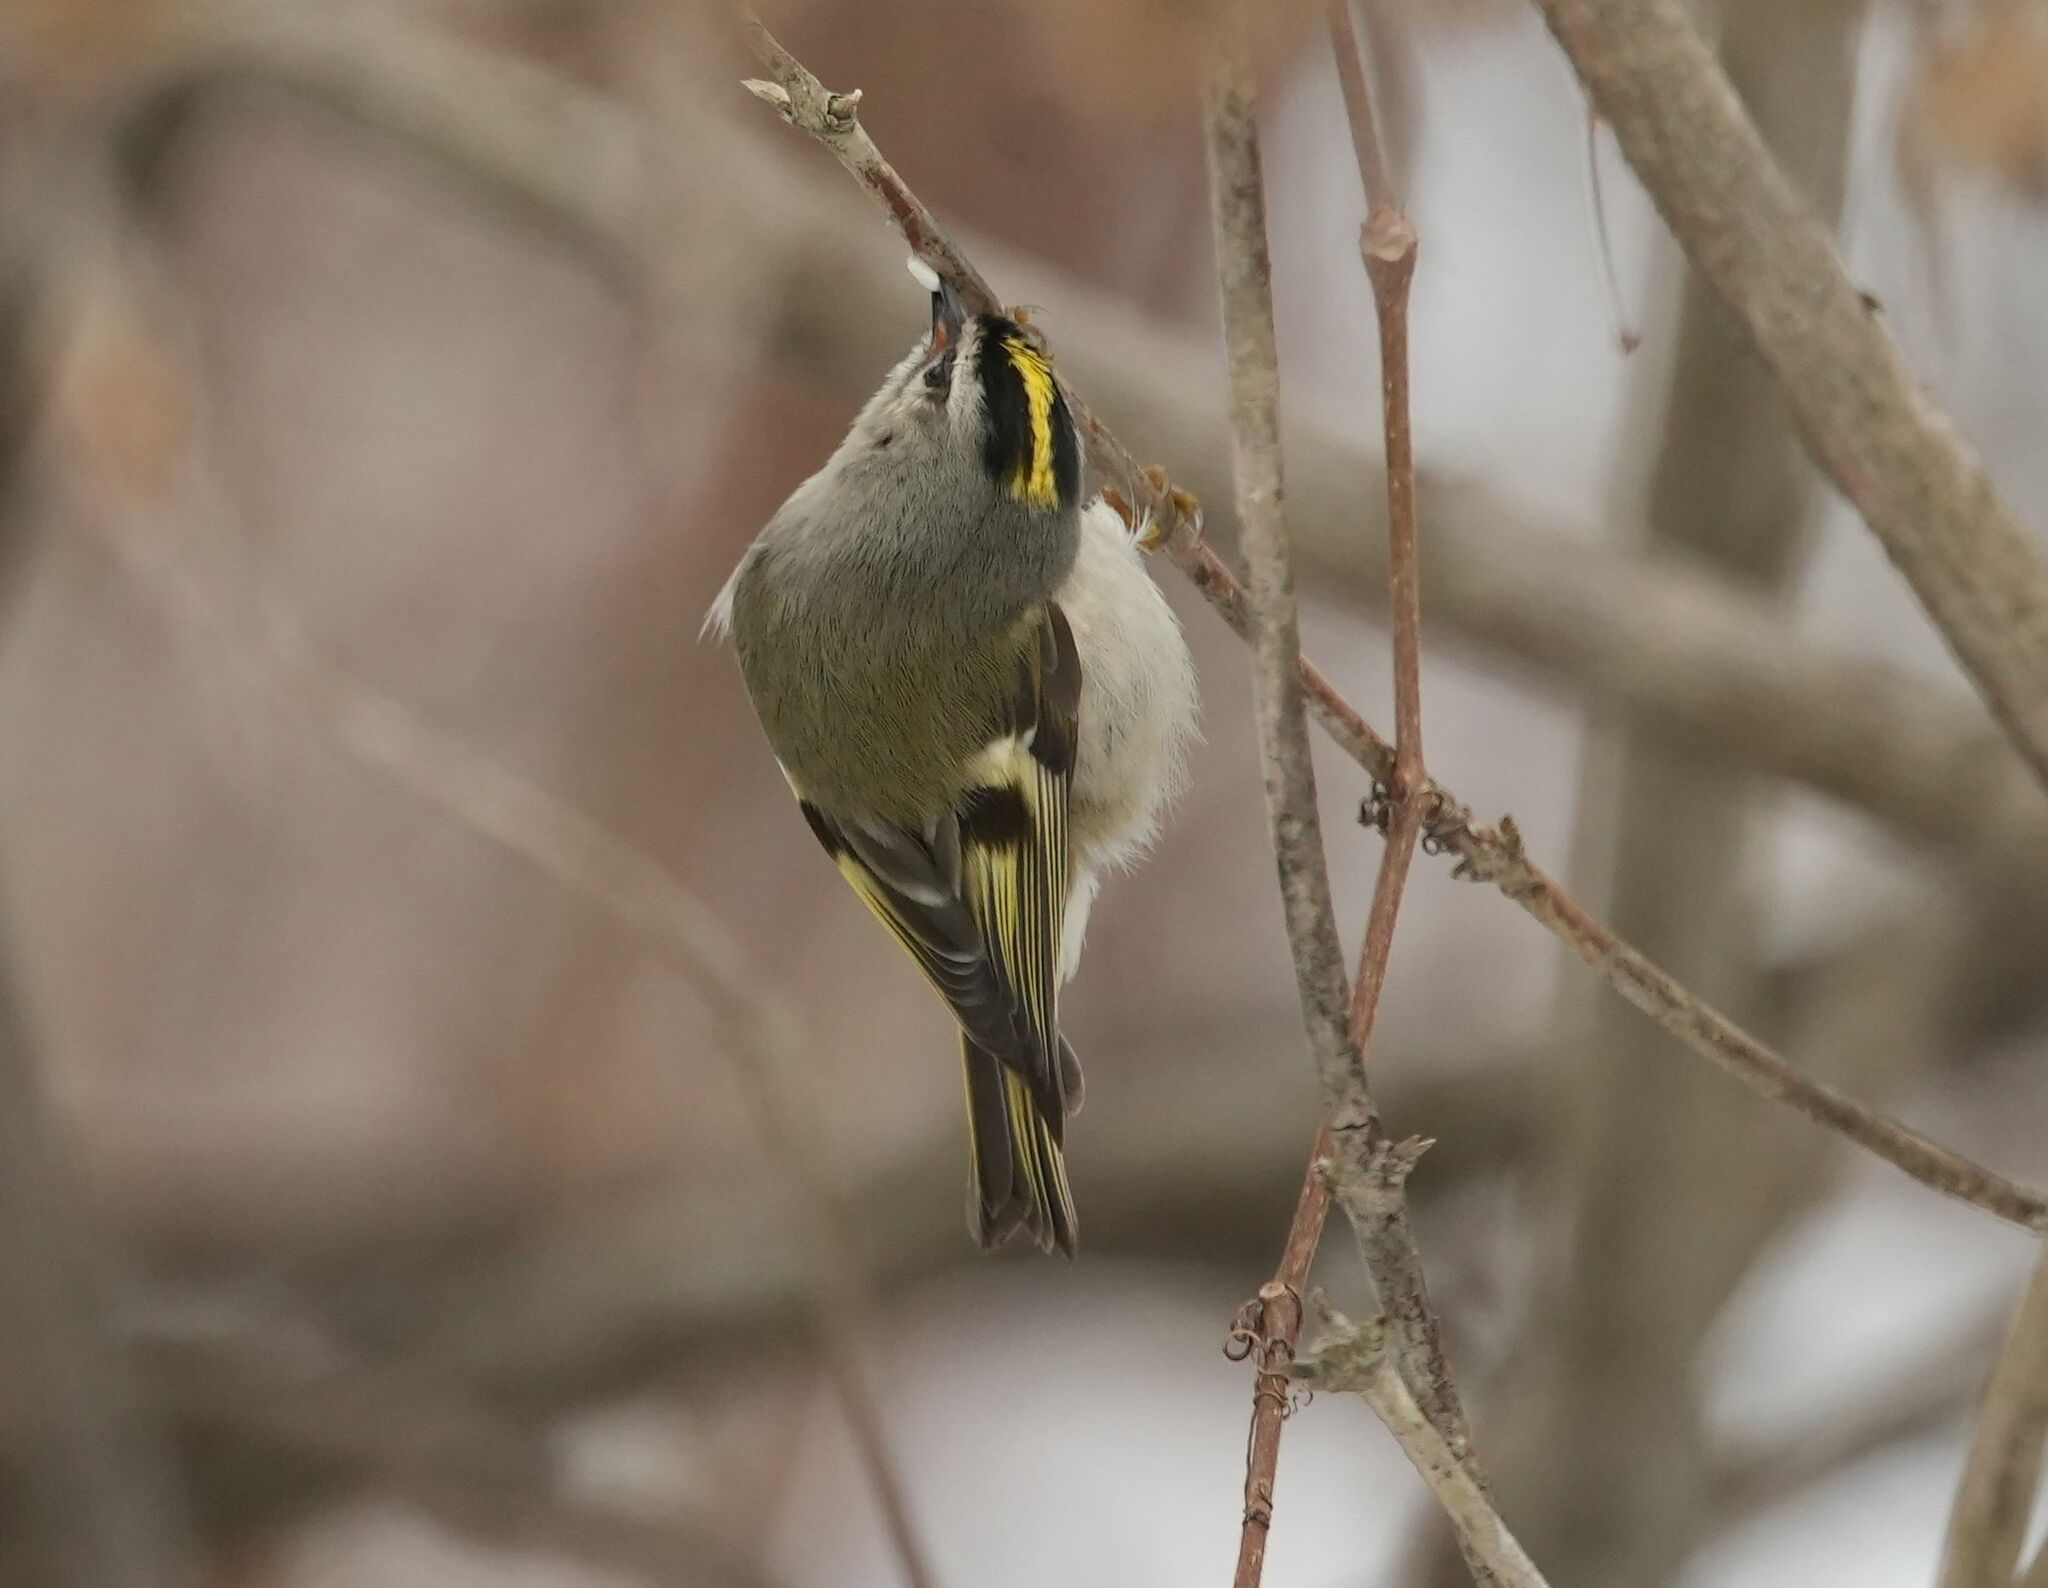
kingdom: Animalia
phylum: Chordata
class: Aves
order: Passeriformes
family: Regulidae
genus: Regulus
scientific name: Regulus satrapa
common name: Golden-crowned kinglet
